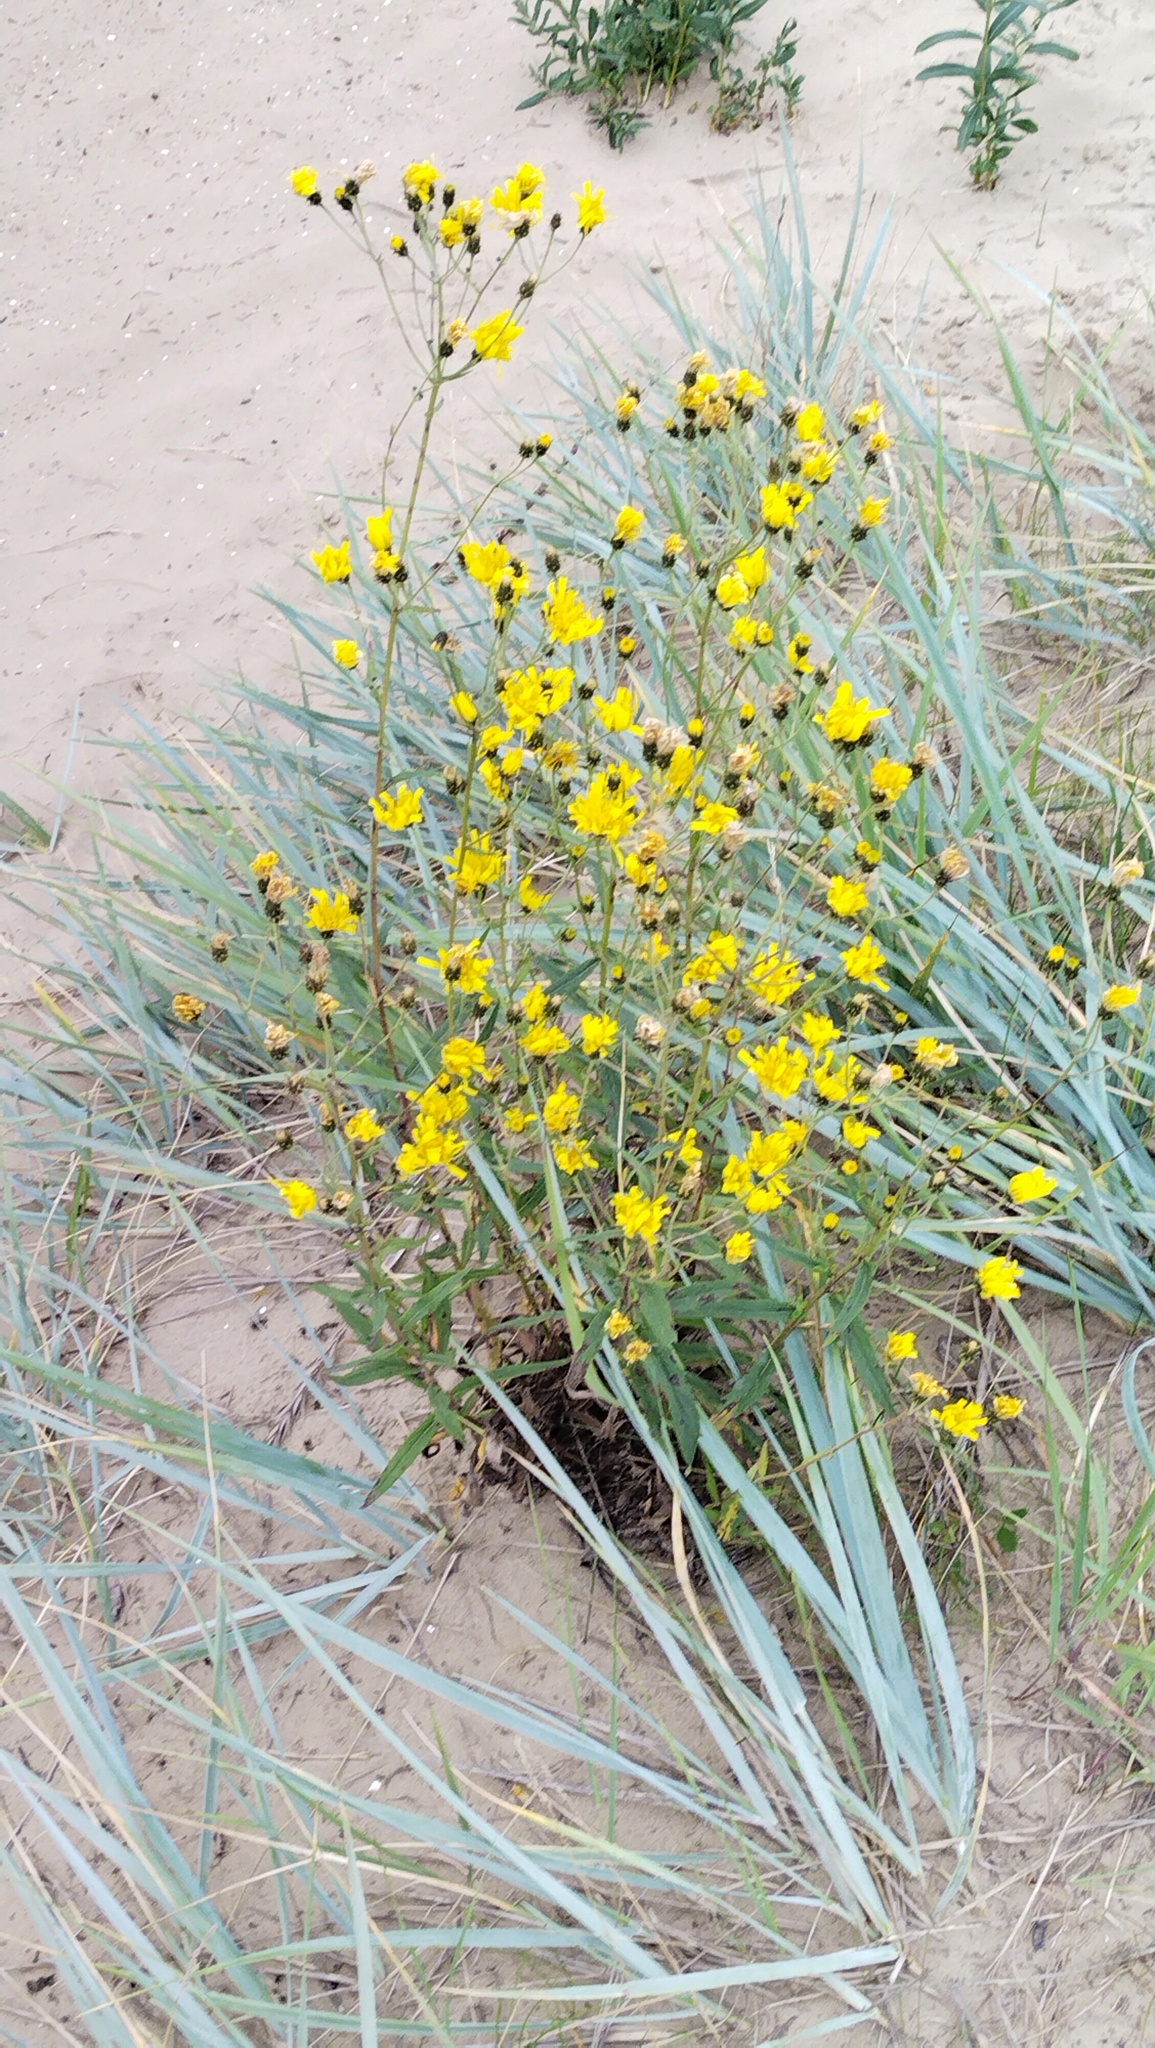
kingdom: Plantae
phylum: Tracheophyta
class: Magnoliopsida
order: Asterales
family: Asteraceae
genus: Hieracium
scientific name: Hieracium umbellatum
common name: Northern hawkweed
